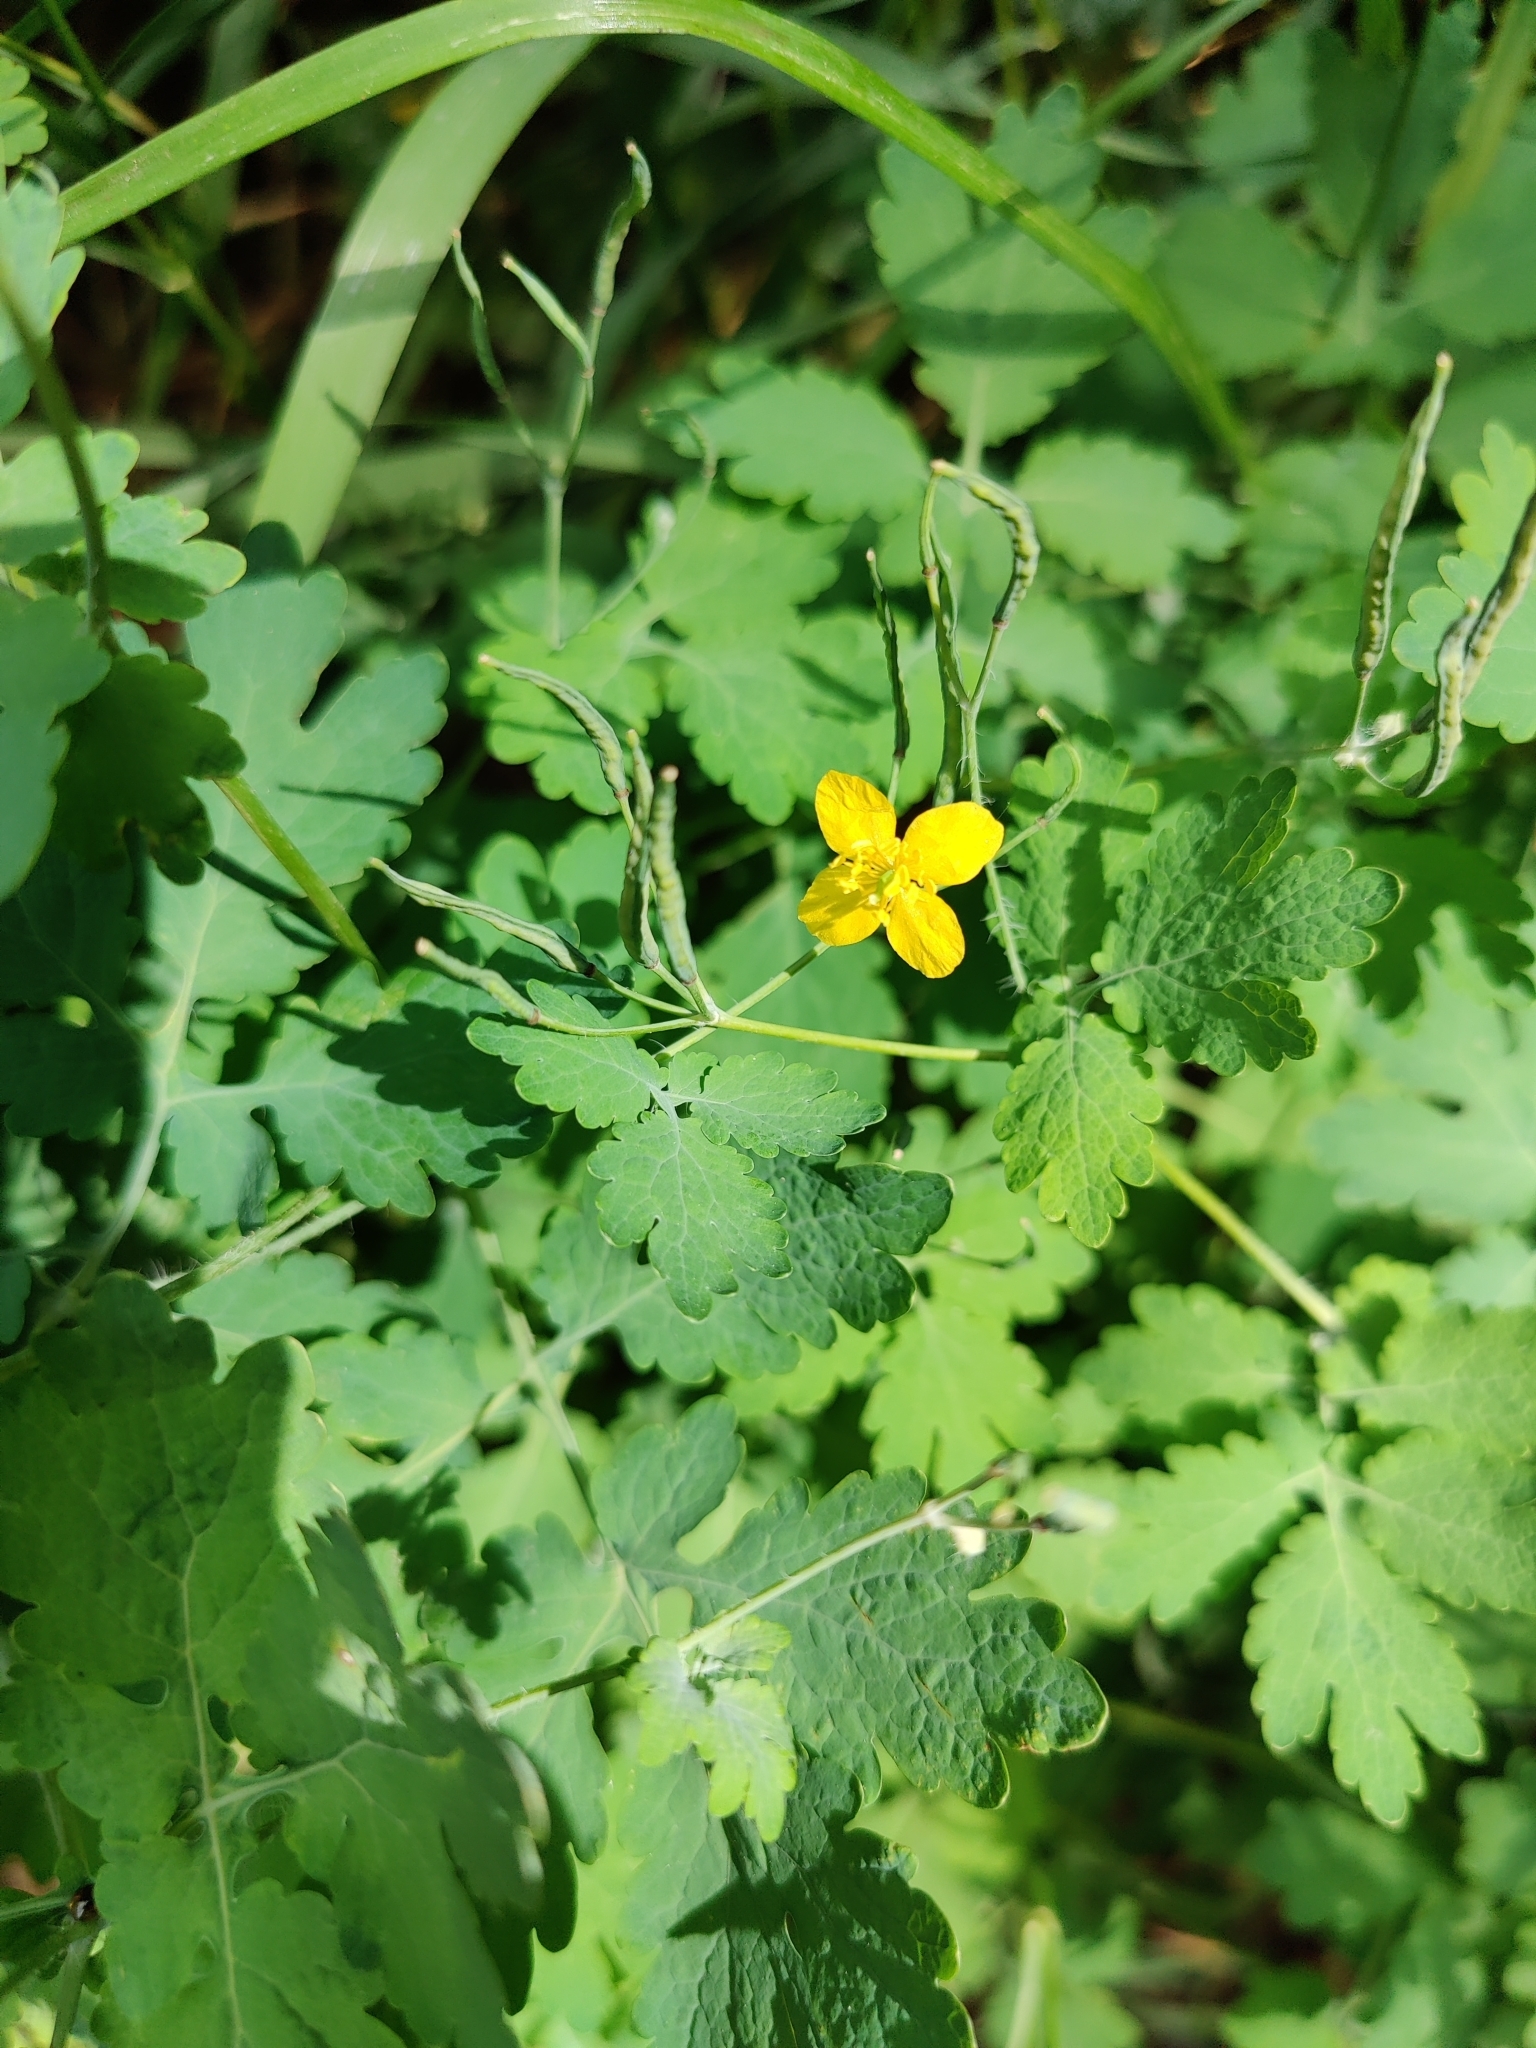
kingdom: Plantae
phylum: Tracheophyta
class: Magnoliopsida
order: Ranunculales
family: Papaveraceae
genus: Chelidonium
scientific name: Chelidonium majus
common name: Greater celandine
